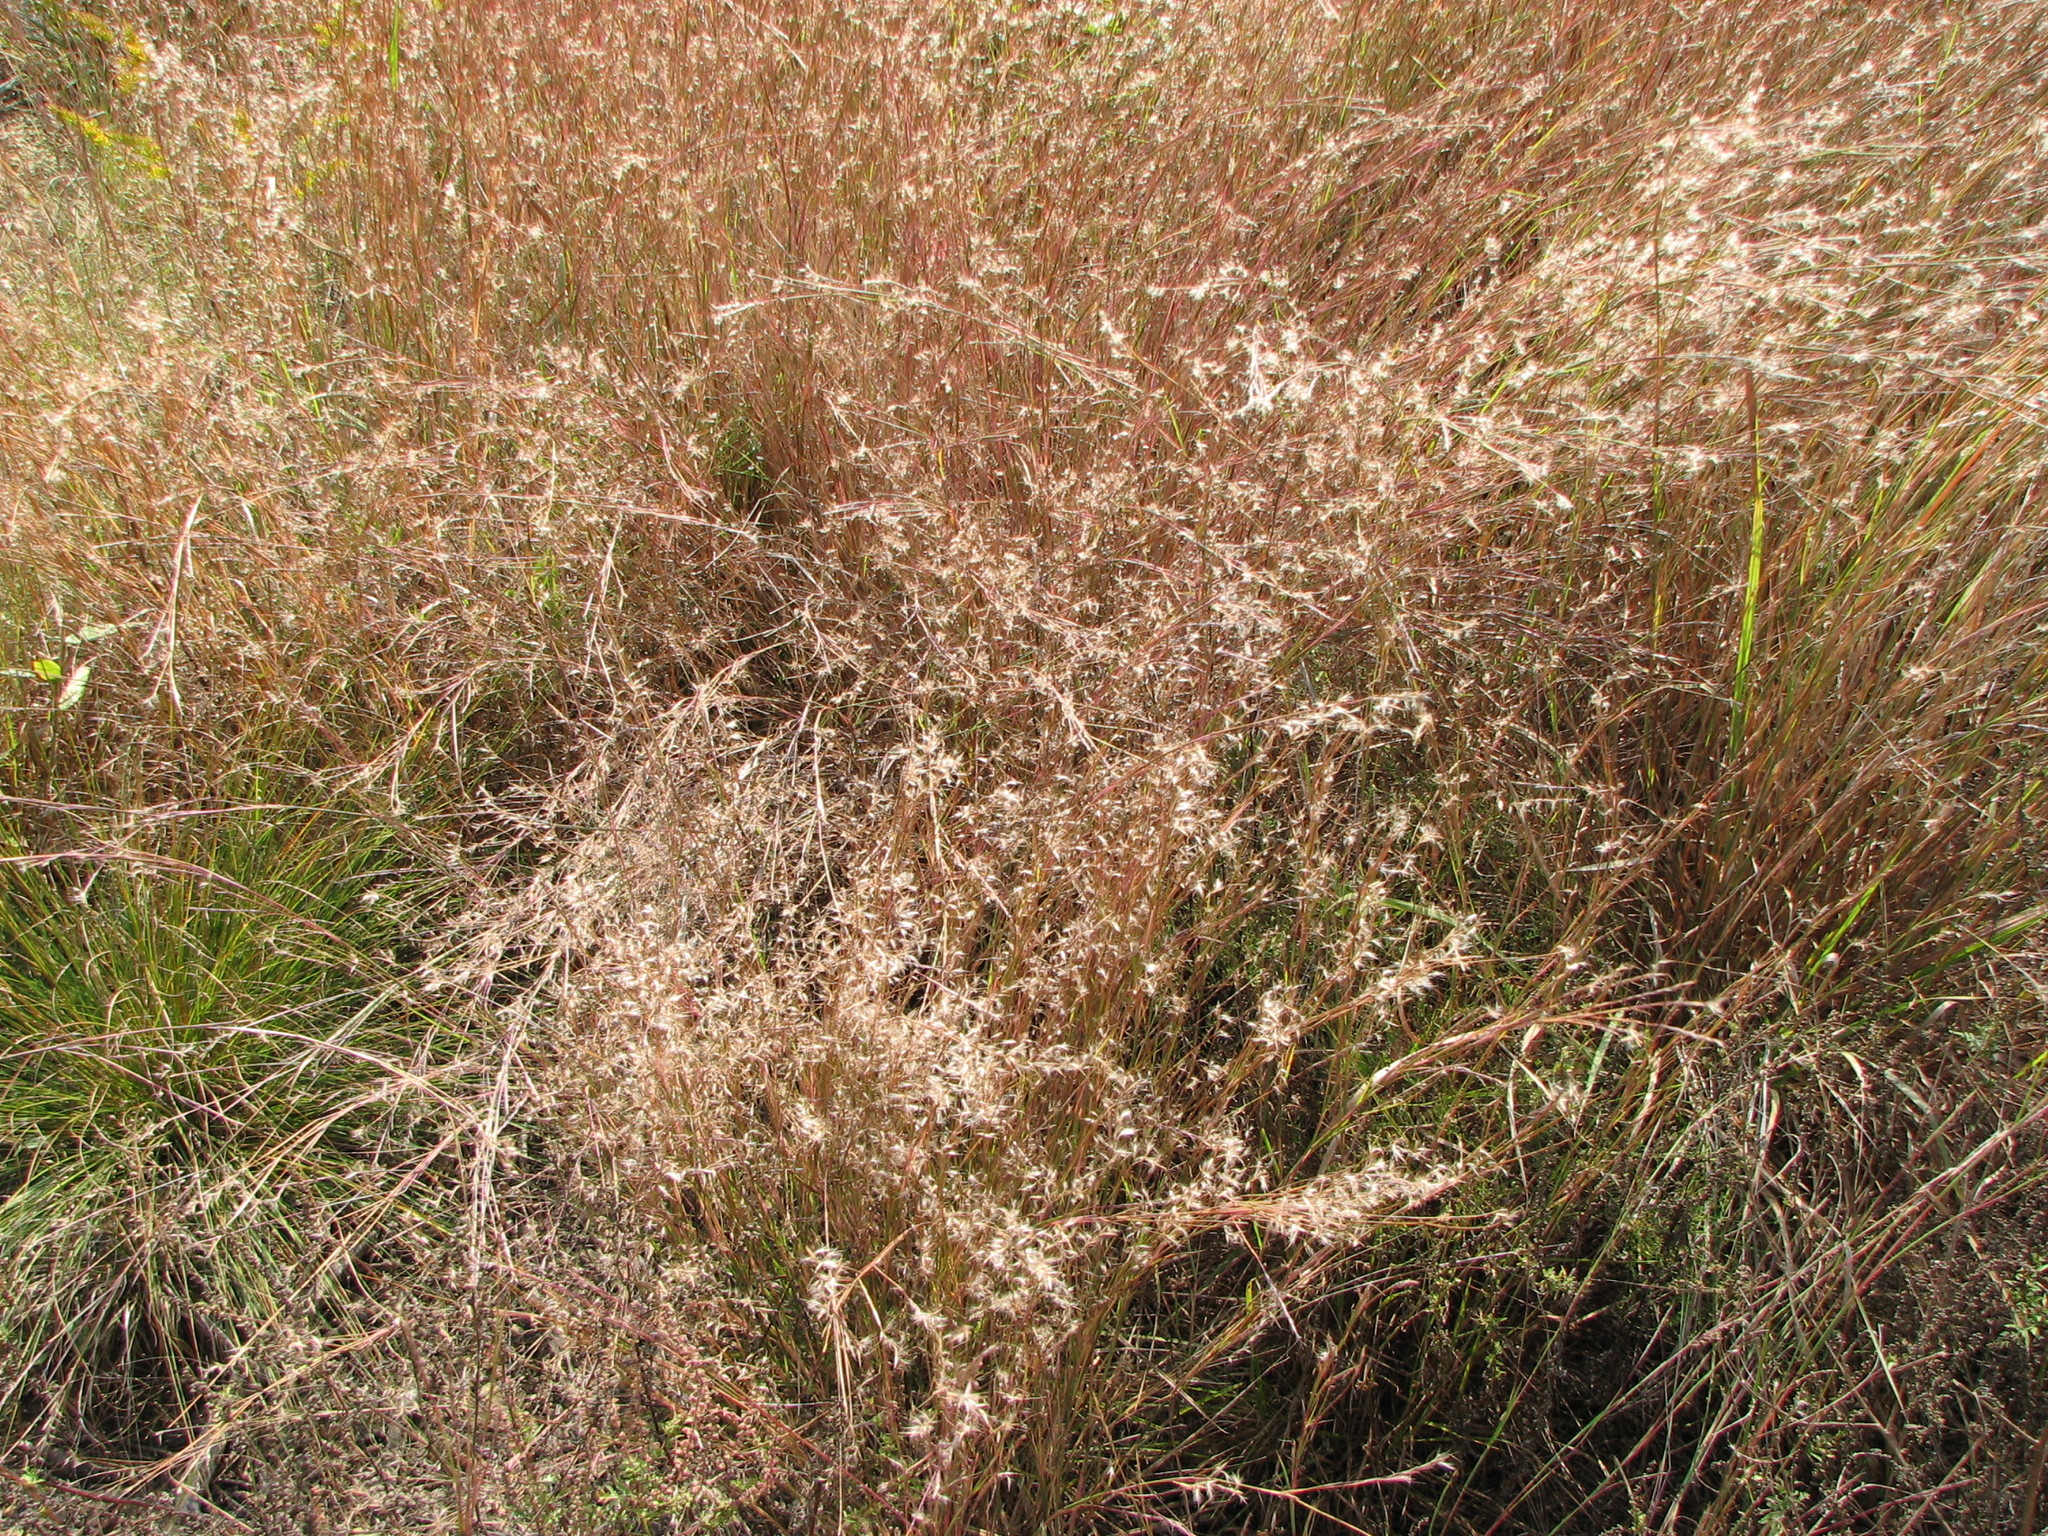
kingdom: Plantae
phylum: Tracheophyta
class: Liliopsida
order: Poales
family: Poaceae
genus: Schizachyrium
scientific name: Schizachyrium scoparium
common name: Little bluestem
